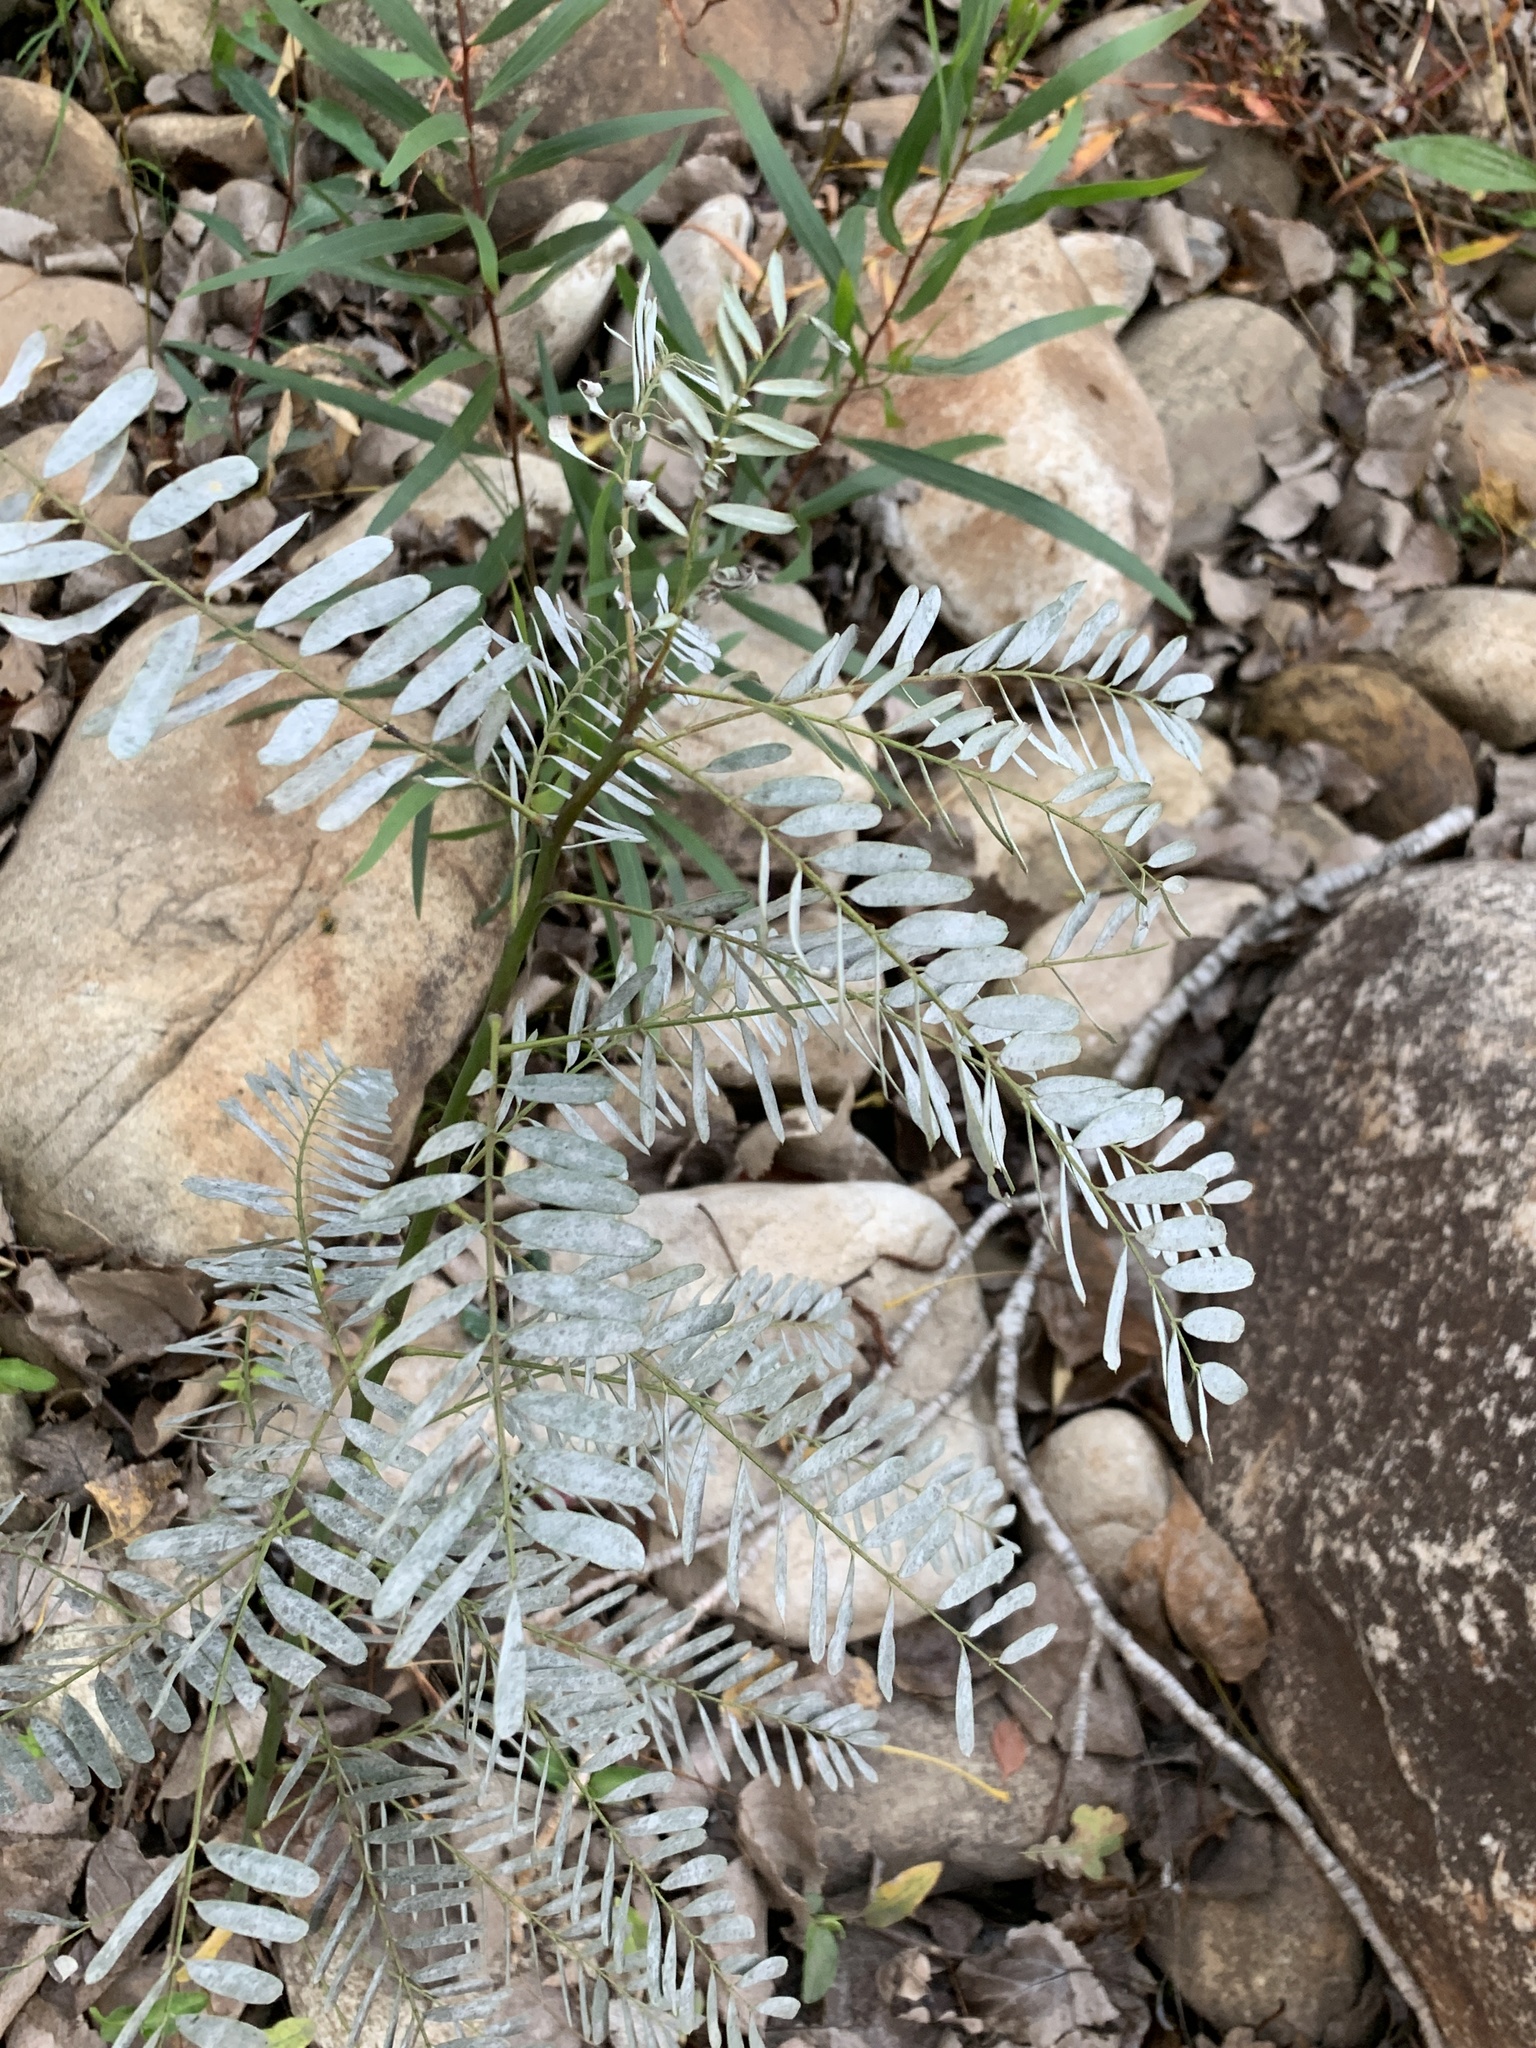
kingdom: Plantae
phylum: Tracheophyta
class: Magnoliopsida
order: Fabales
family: Fabaceae
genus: Sesbania
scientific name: Sesbania punicea
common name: Rattlebox
